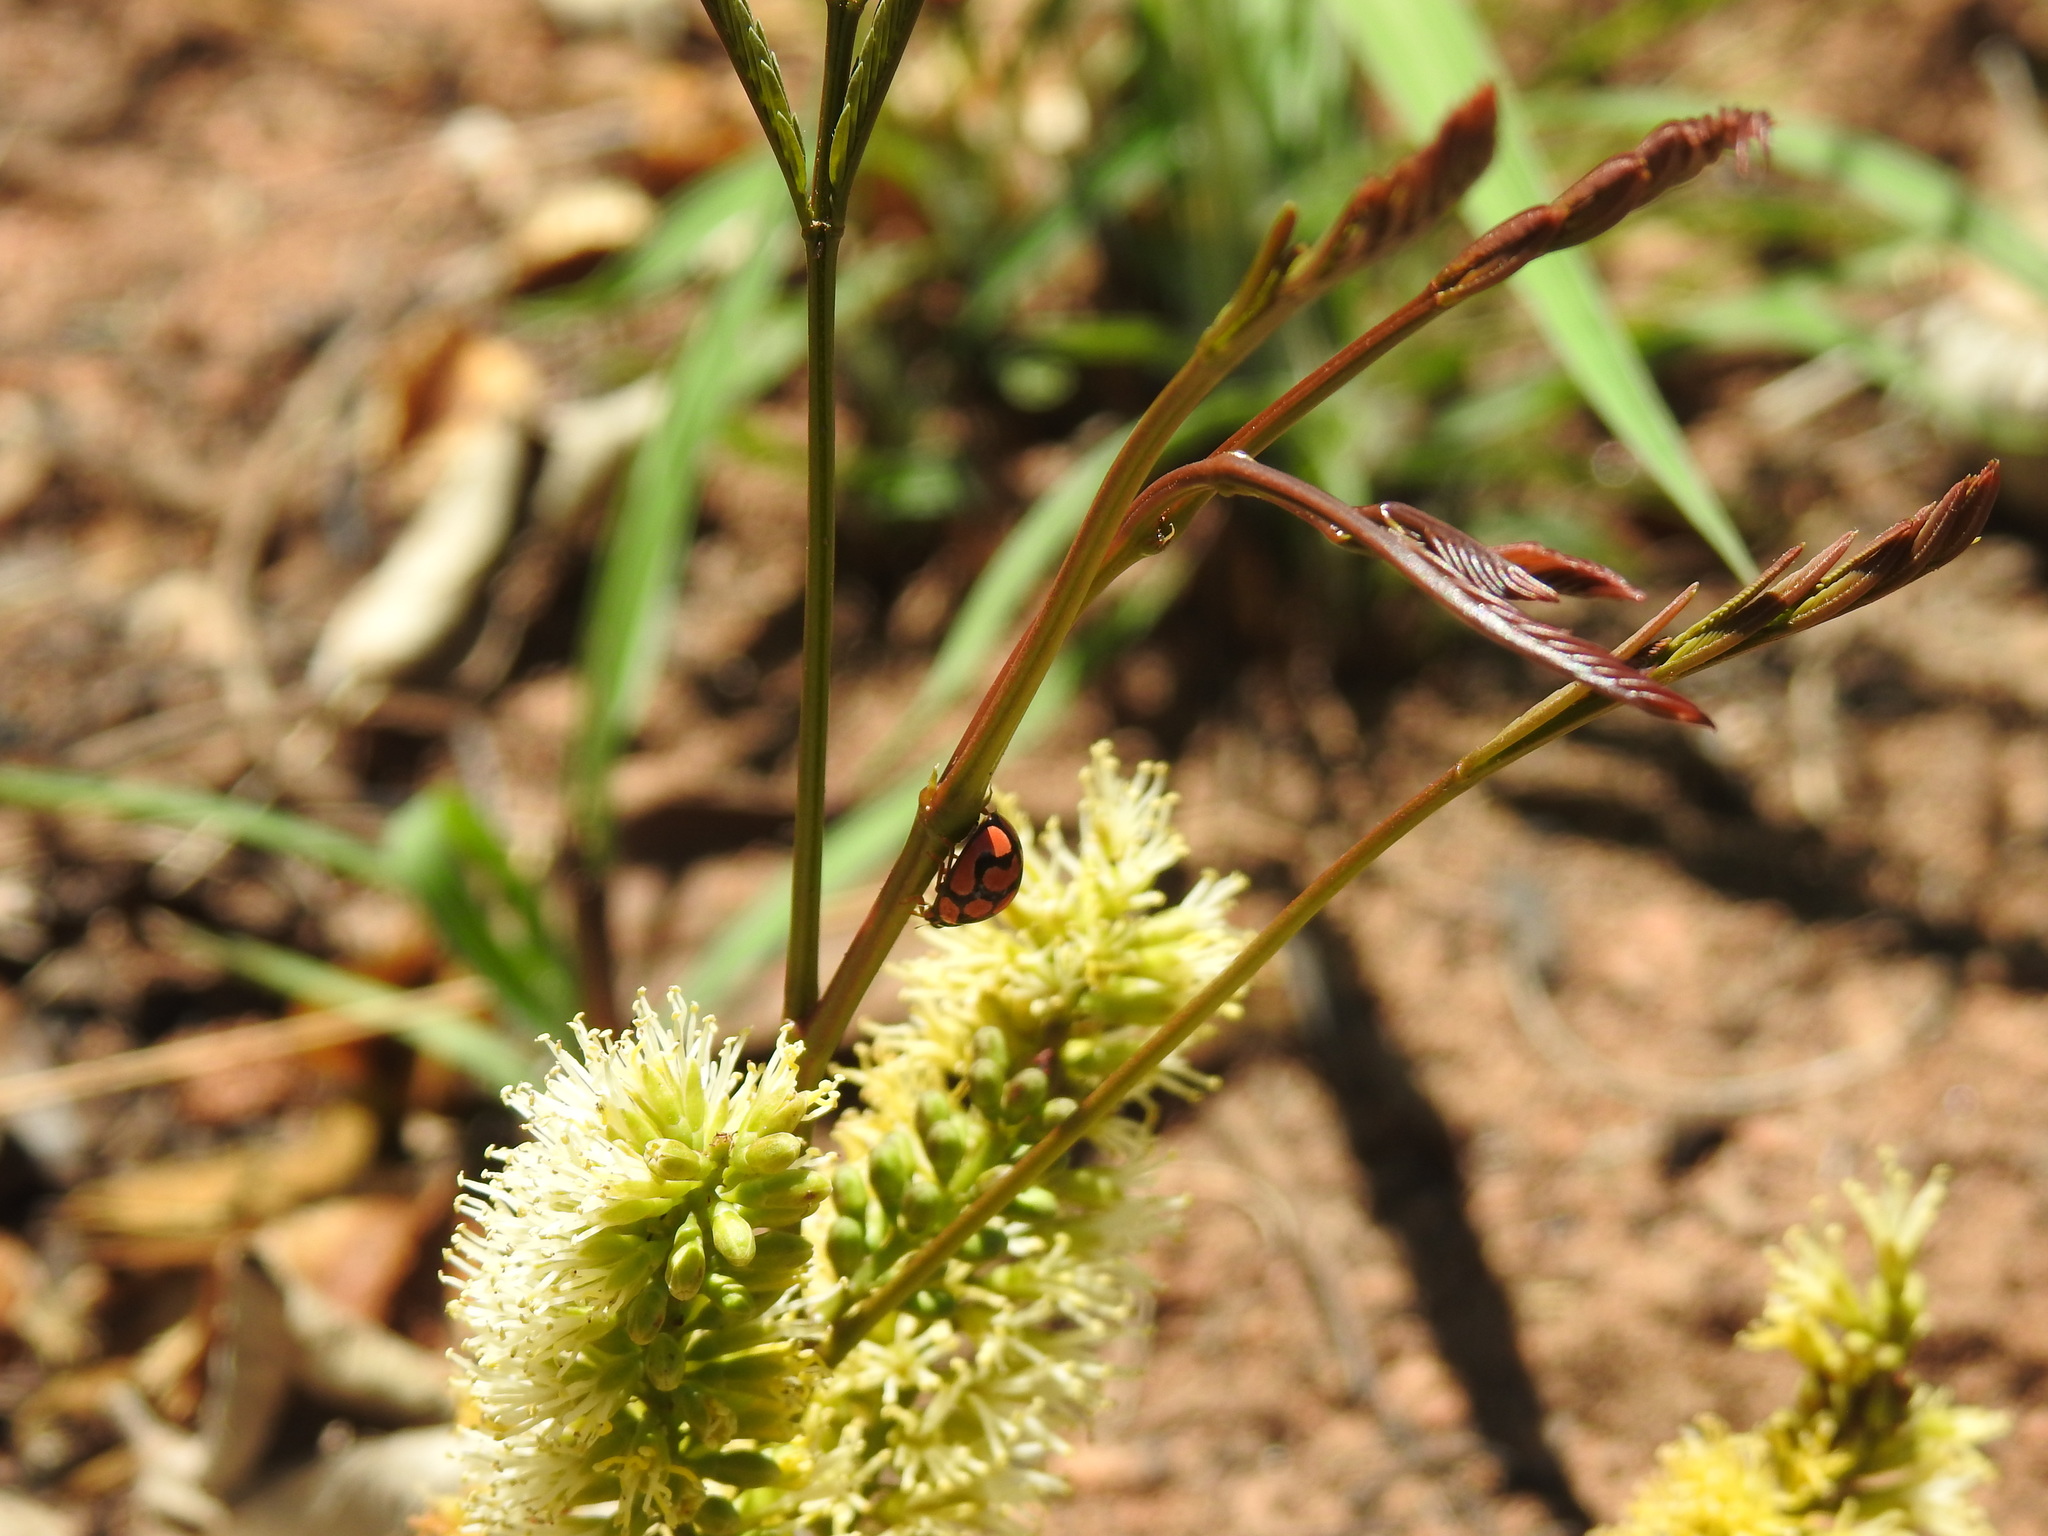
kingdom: Animalia
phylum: Arthropoda
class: Insecta
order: Coleoptera
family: Coccinellidae
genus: Cheilomenes
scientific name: Cheilomenes lunata
